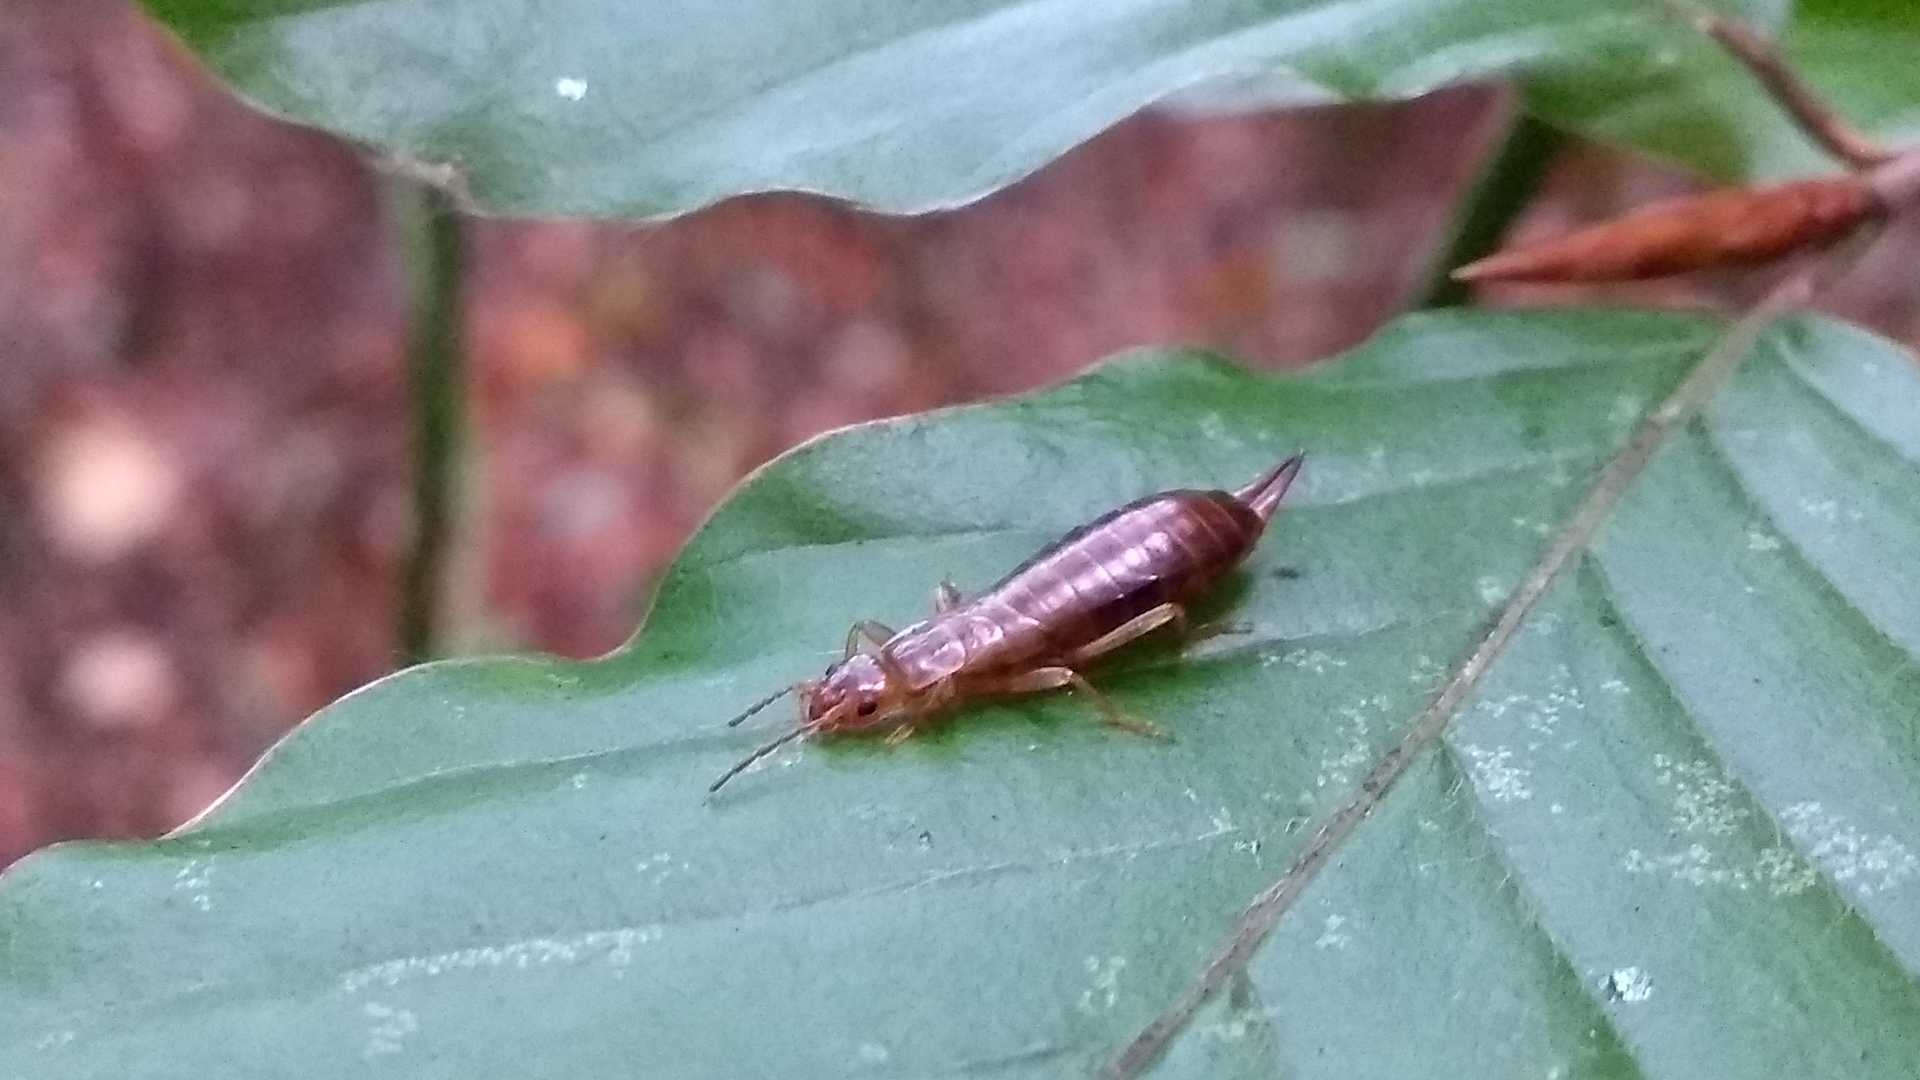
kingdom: Animalia
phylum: Arthropoda
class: Insecta
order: Dermaptera
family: Forficulidae
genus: Chelidurella
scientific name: Chelidurella acanthopygia
